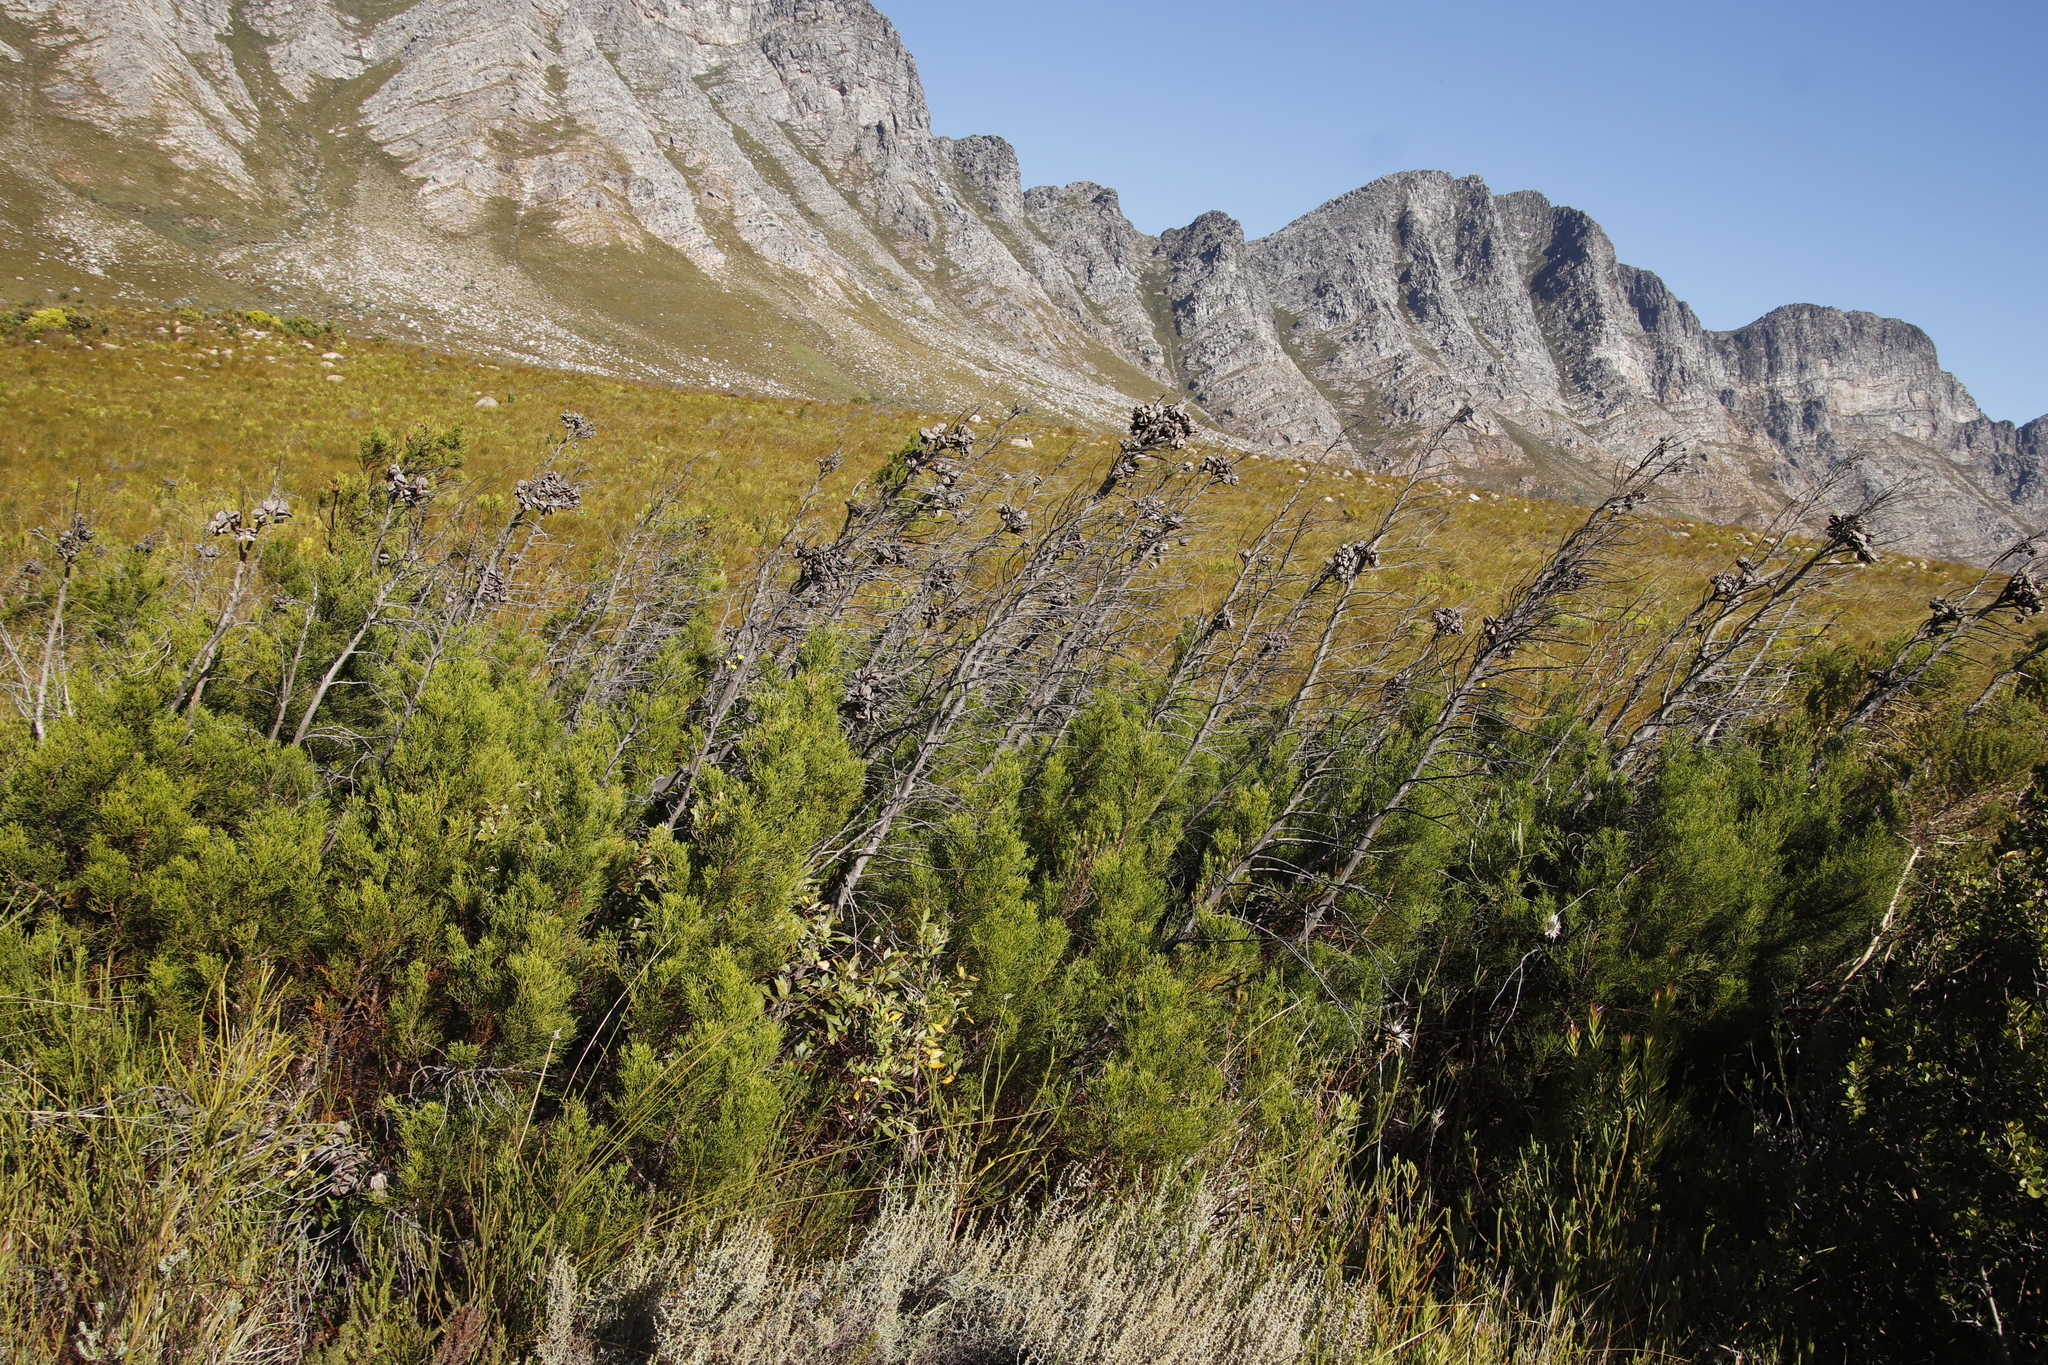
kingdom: Plantae
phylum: Tracheophyta
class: Pinopsida
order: Pinales
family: Cupressaceae
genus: Widdringtonia
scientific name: Widdringtonia nodiflora
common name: Cape cypress
